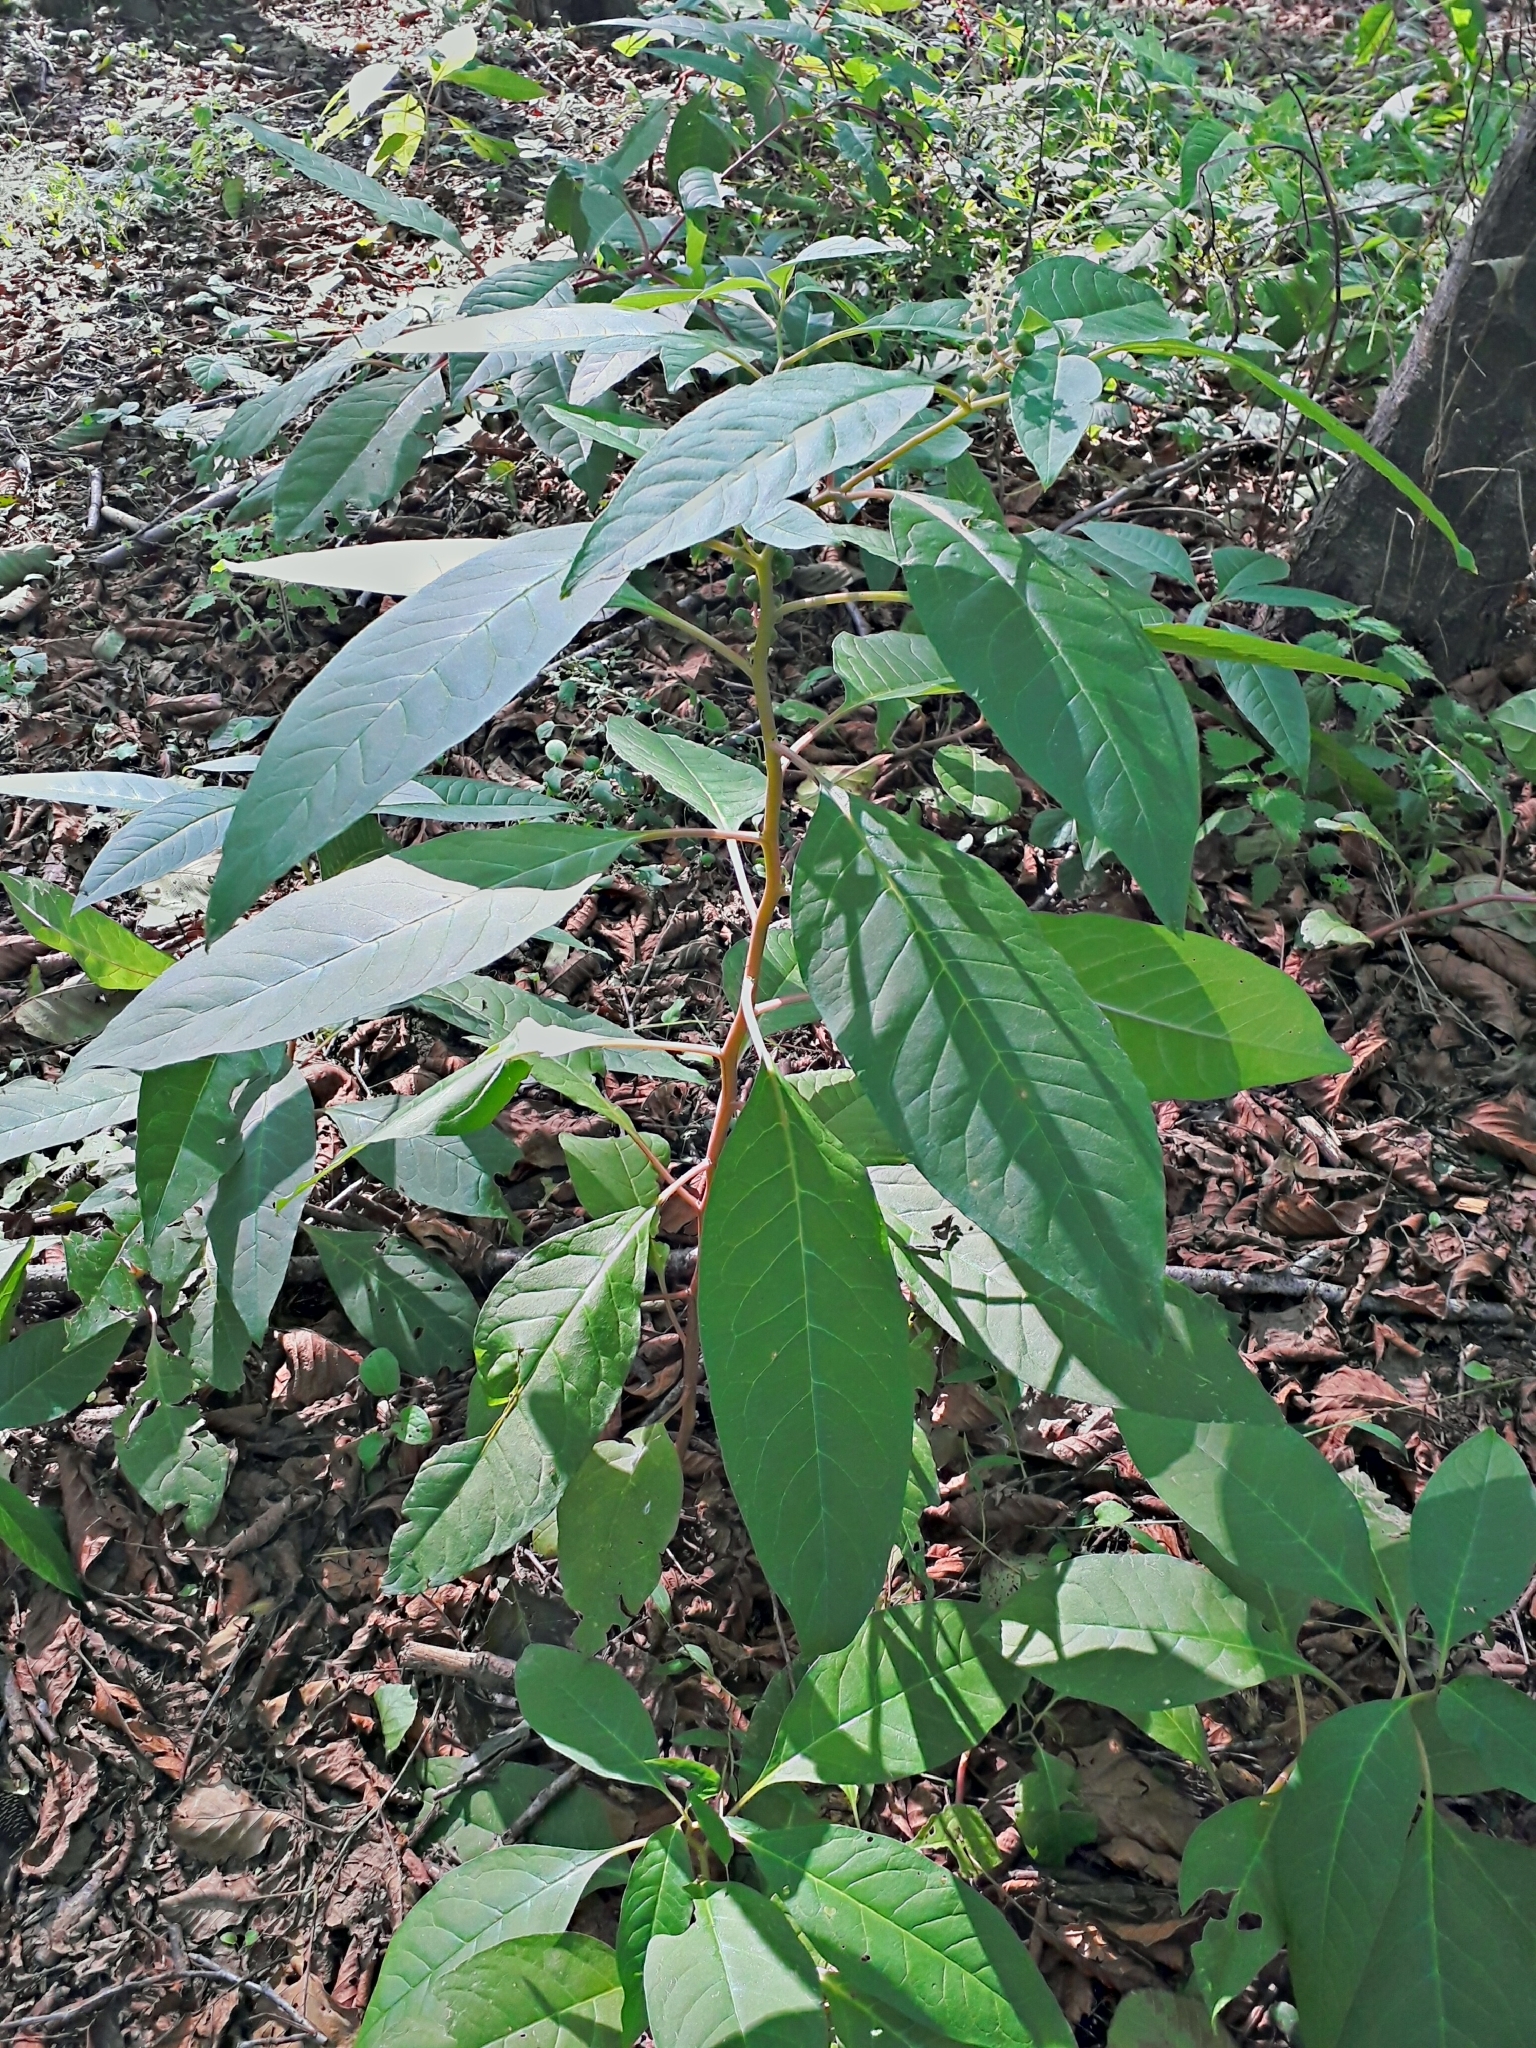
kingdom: Plantae
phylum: Tracheophyta
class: Magnoliopsida
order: Caryophyllales
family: Phytolaccaceae
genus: Phytolacca
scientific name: Phytolacca americana
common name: American pokeweed
